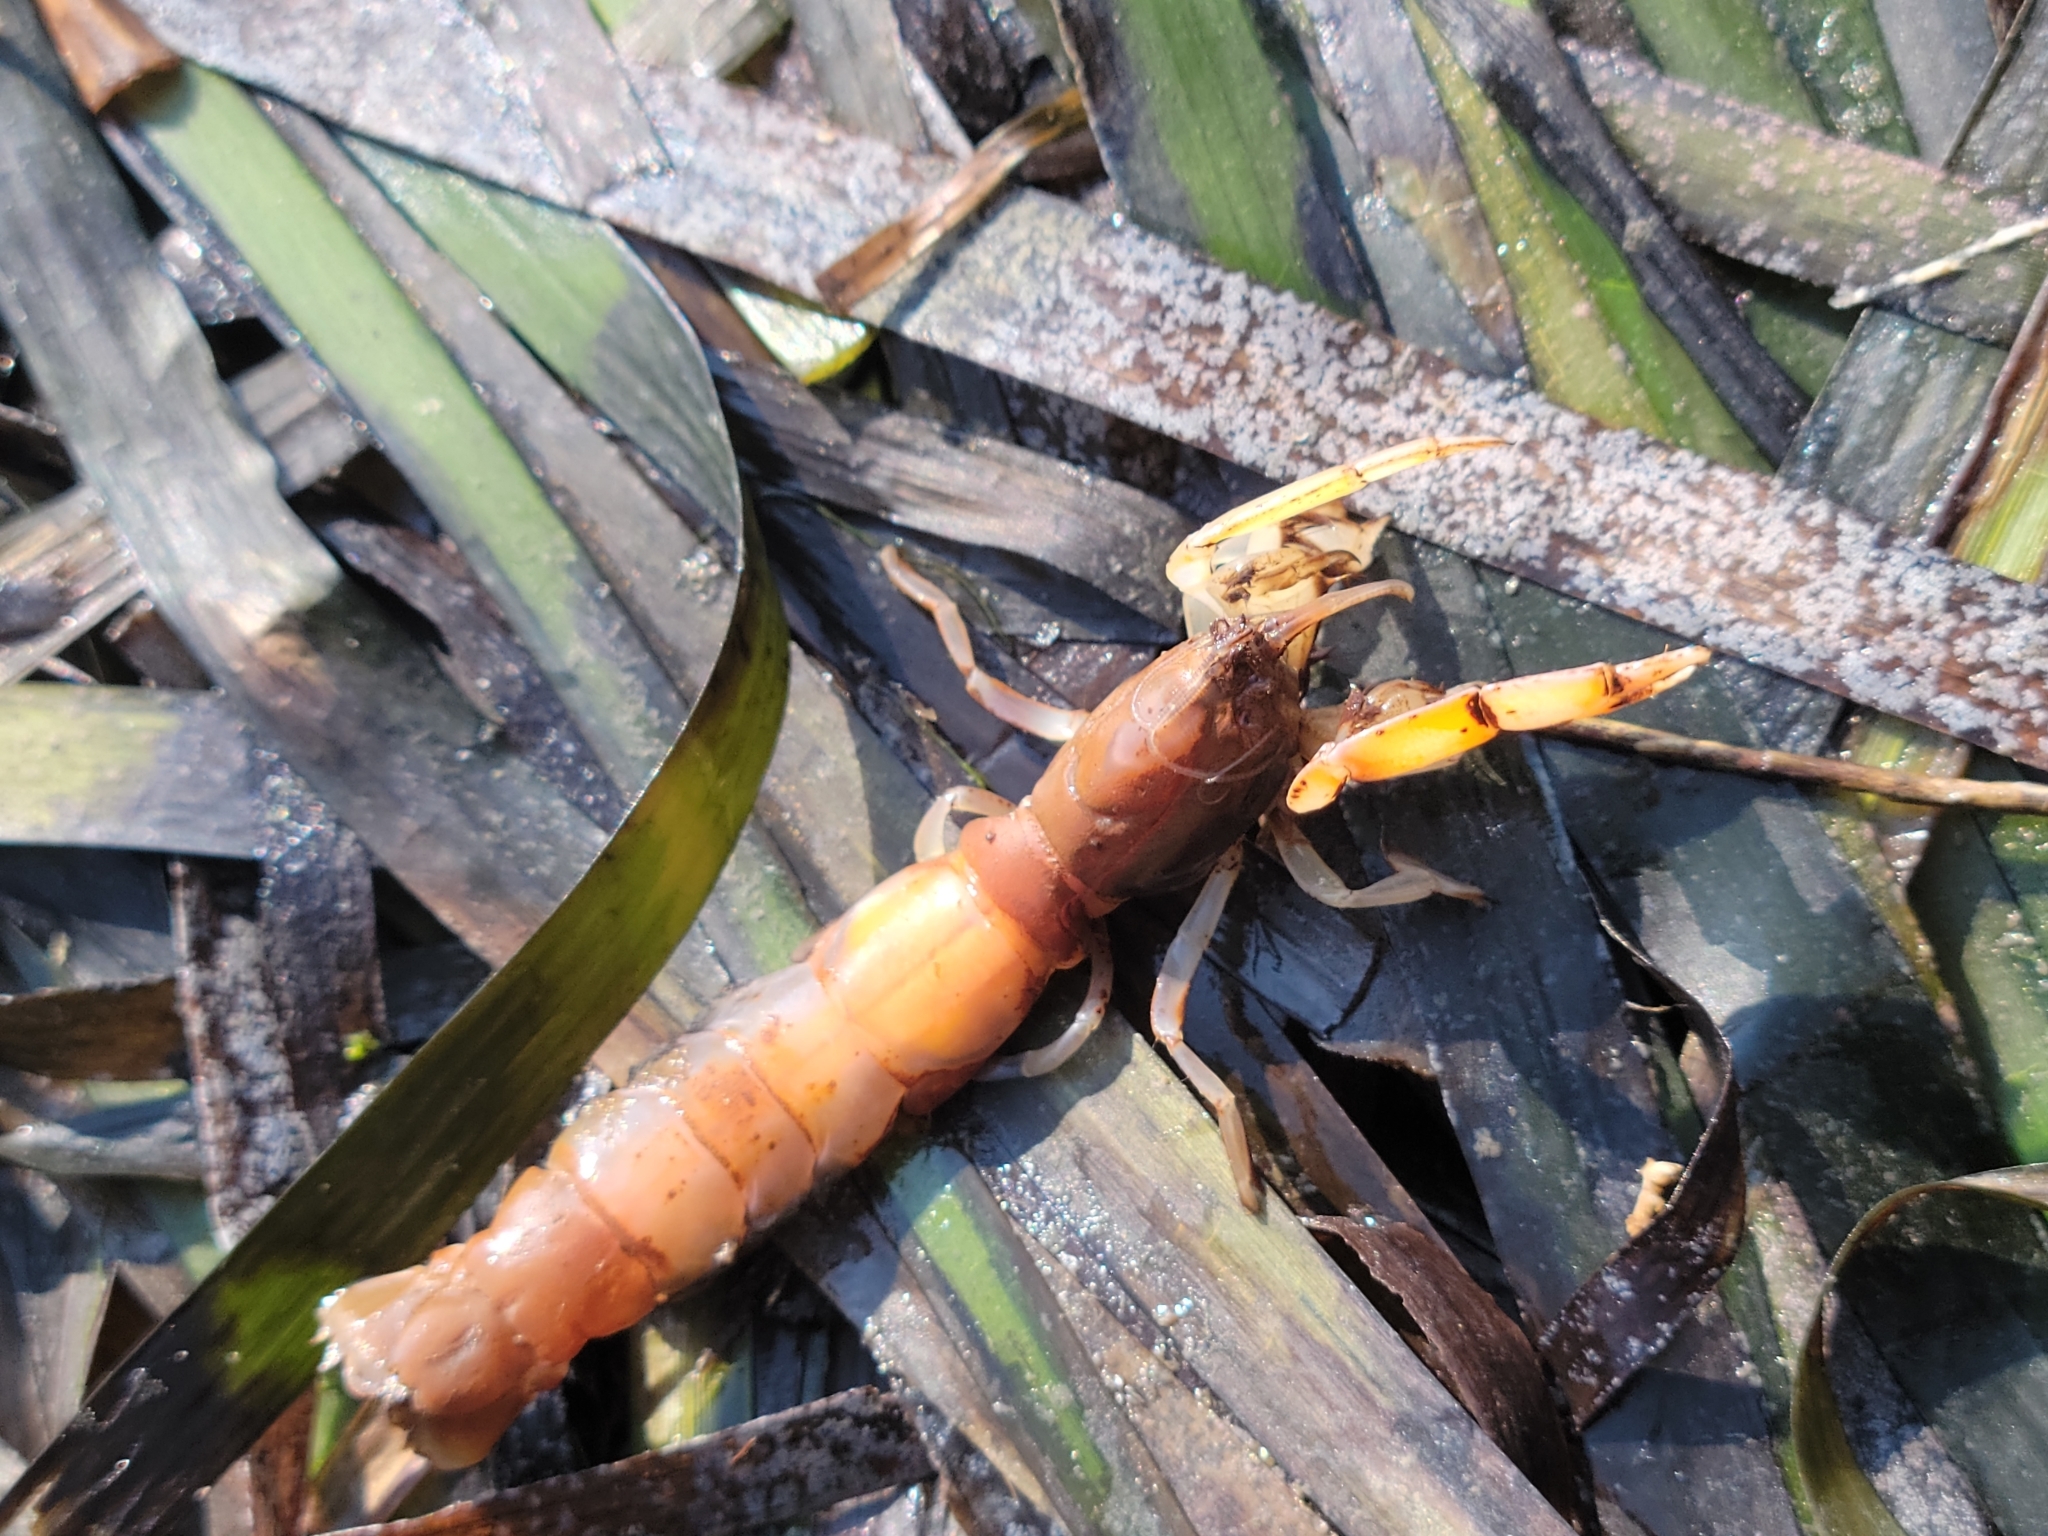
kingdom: Animalia
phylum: Arthropoda
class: Malacostraca
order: Decapoda
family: Callianassidae
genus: Neotrypaea
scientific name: Neotrypaea californiensis
